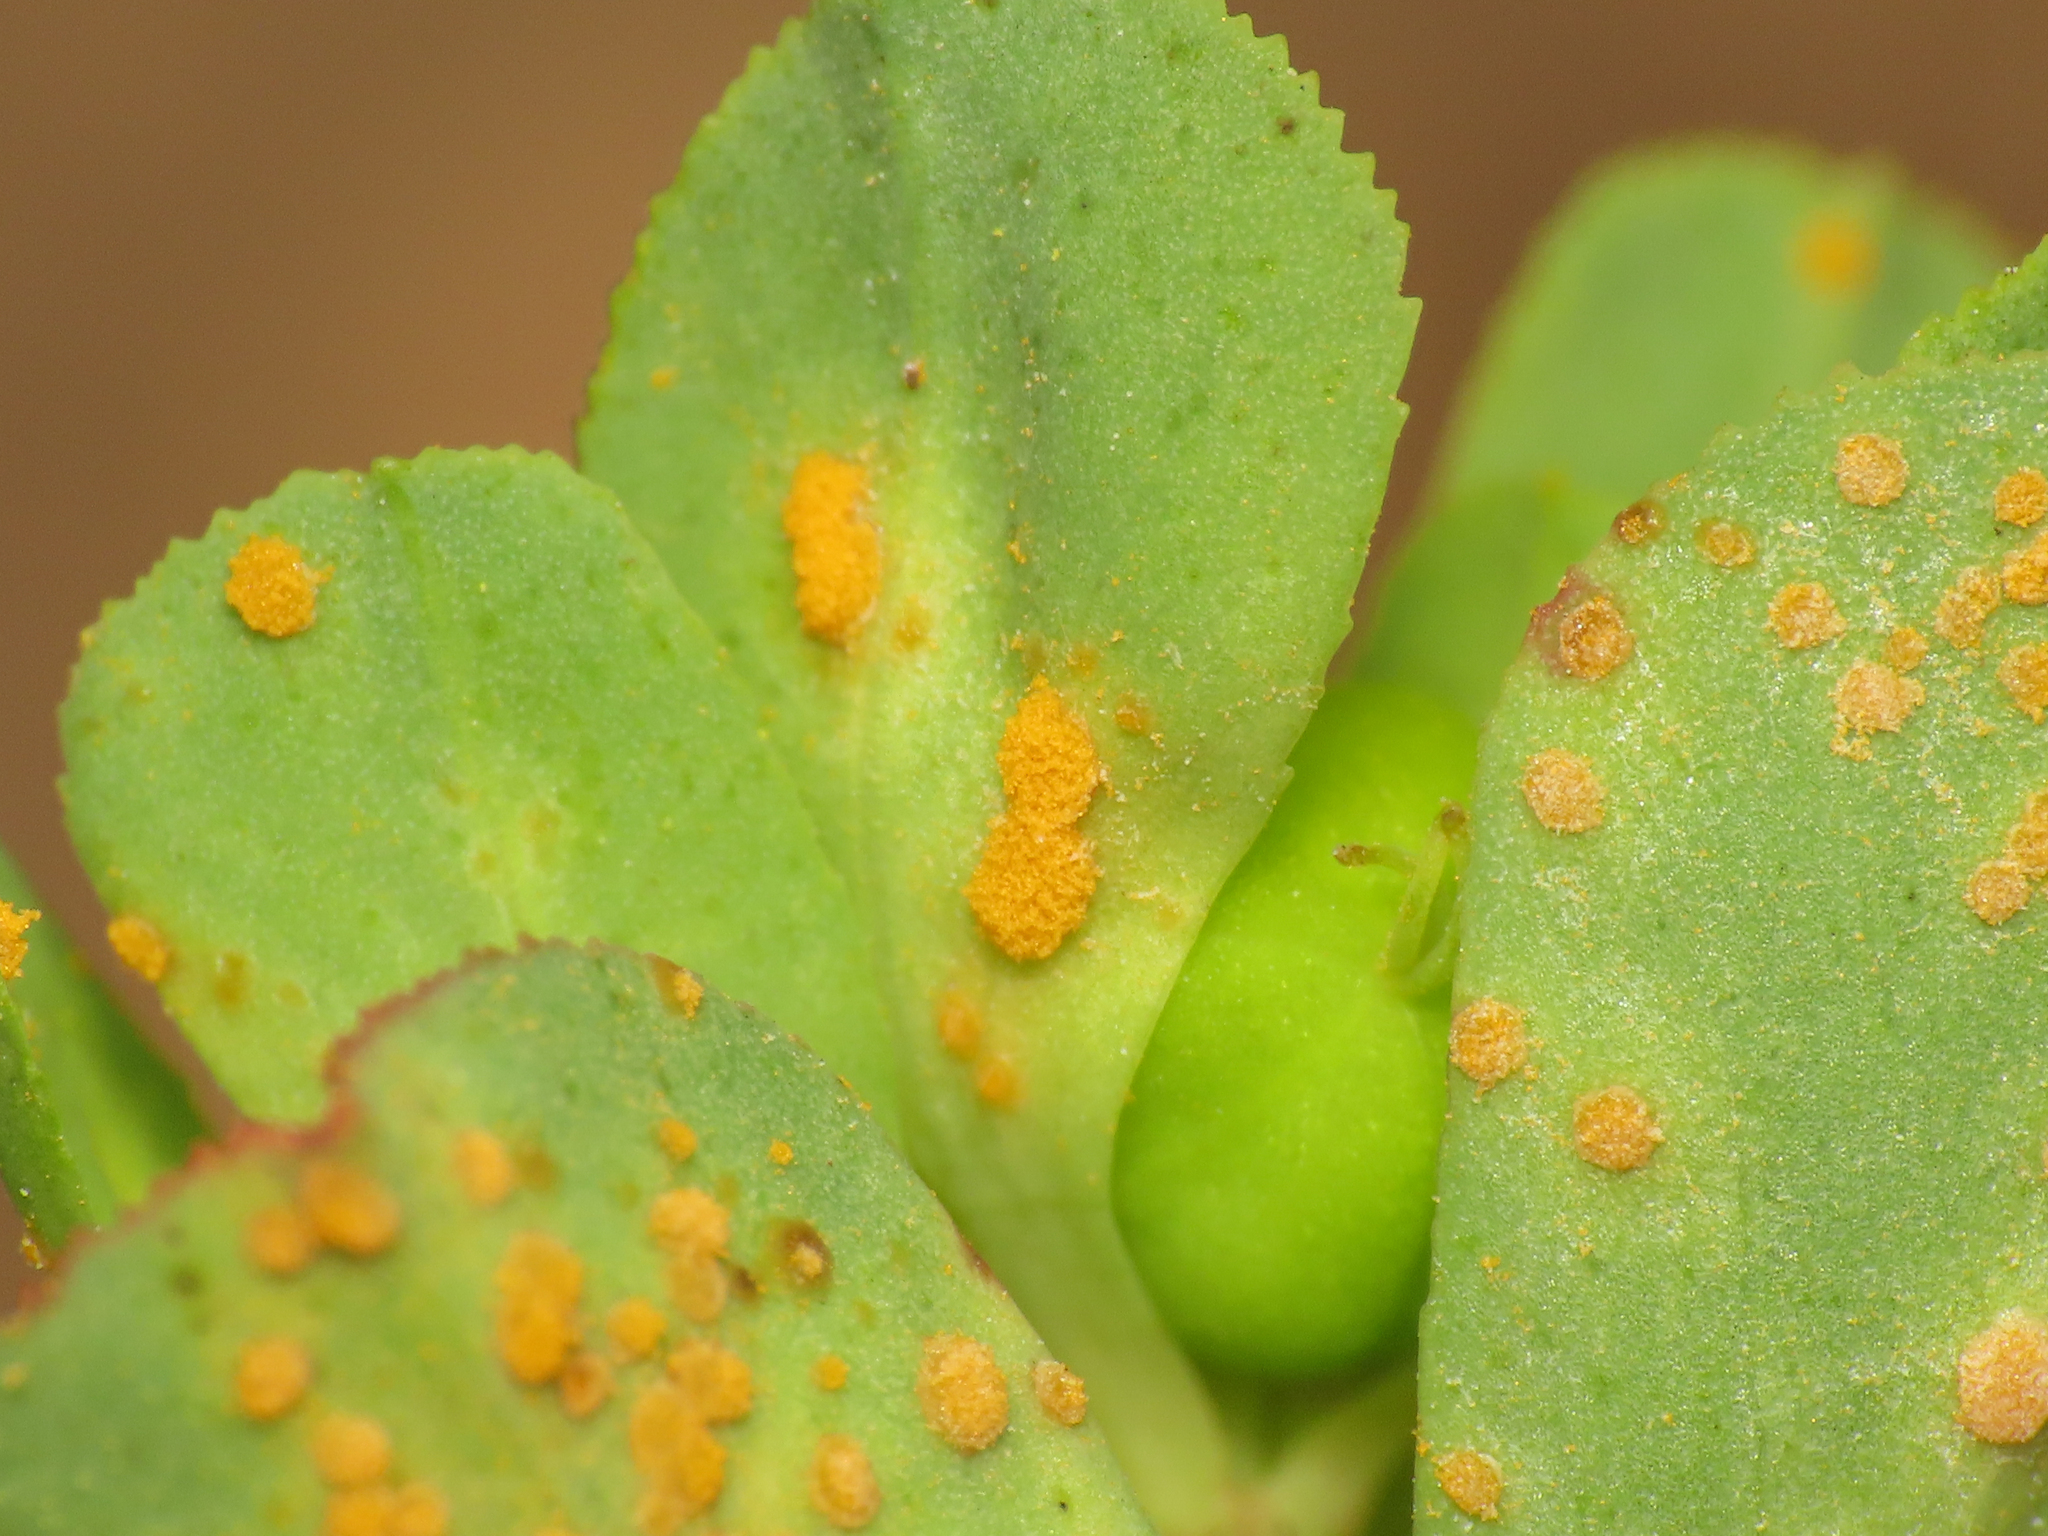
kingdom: Fungi
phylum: Basidiomycota
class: Pucciniomycetes
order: Pucciniales
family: Melampsoraceae
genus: Melampsora
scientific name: Melampsora euphorbiae
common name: Spurge rust
